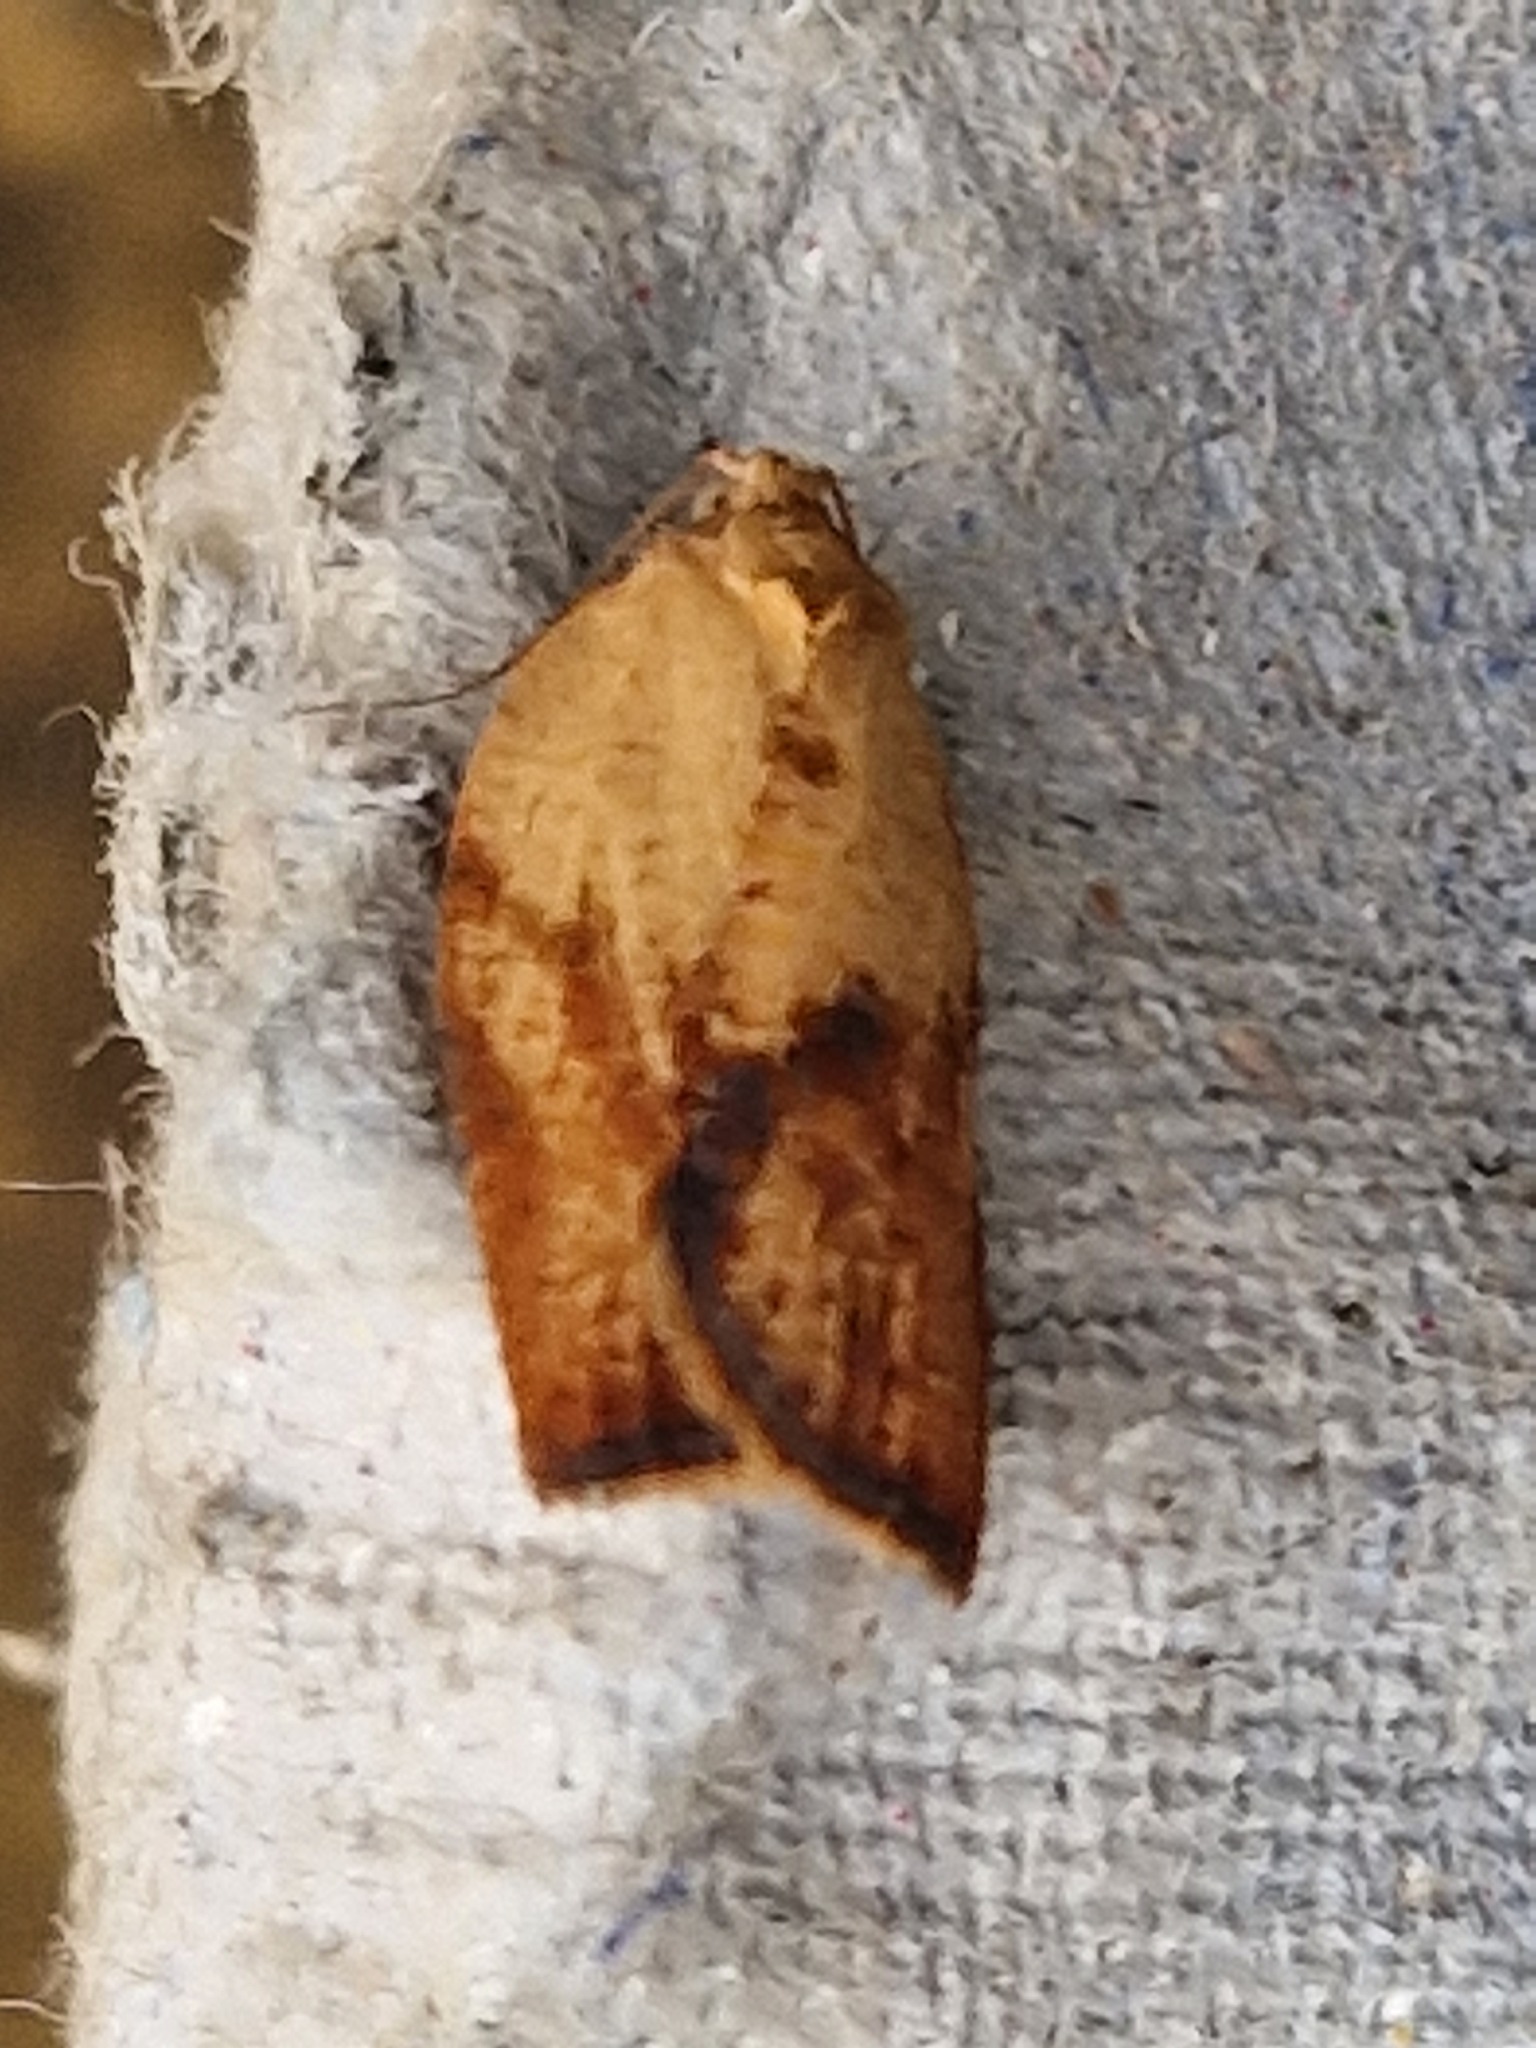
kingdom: Animalia
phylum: Arthropoda
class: Insecta
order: Lepidoptera
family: Tortricidae
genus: Epiphyas
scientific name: Epiphyas postvittana
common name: Light brown apple moth
